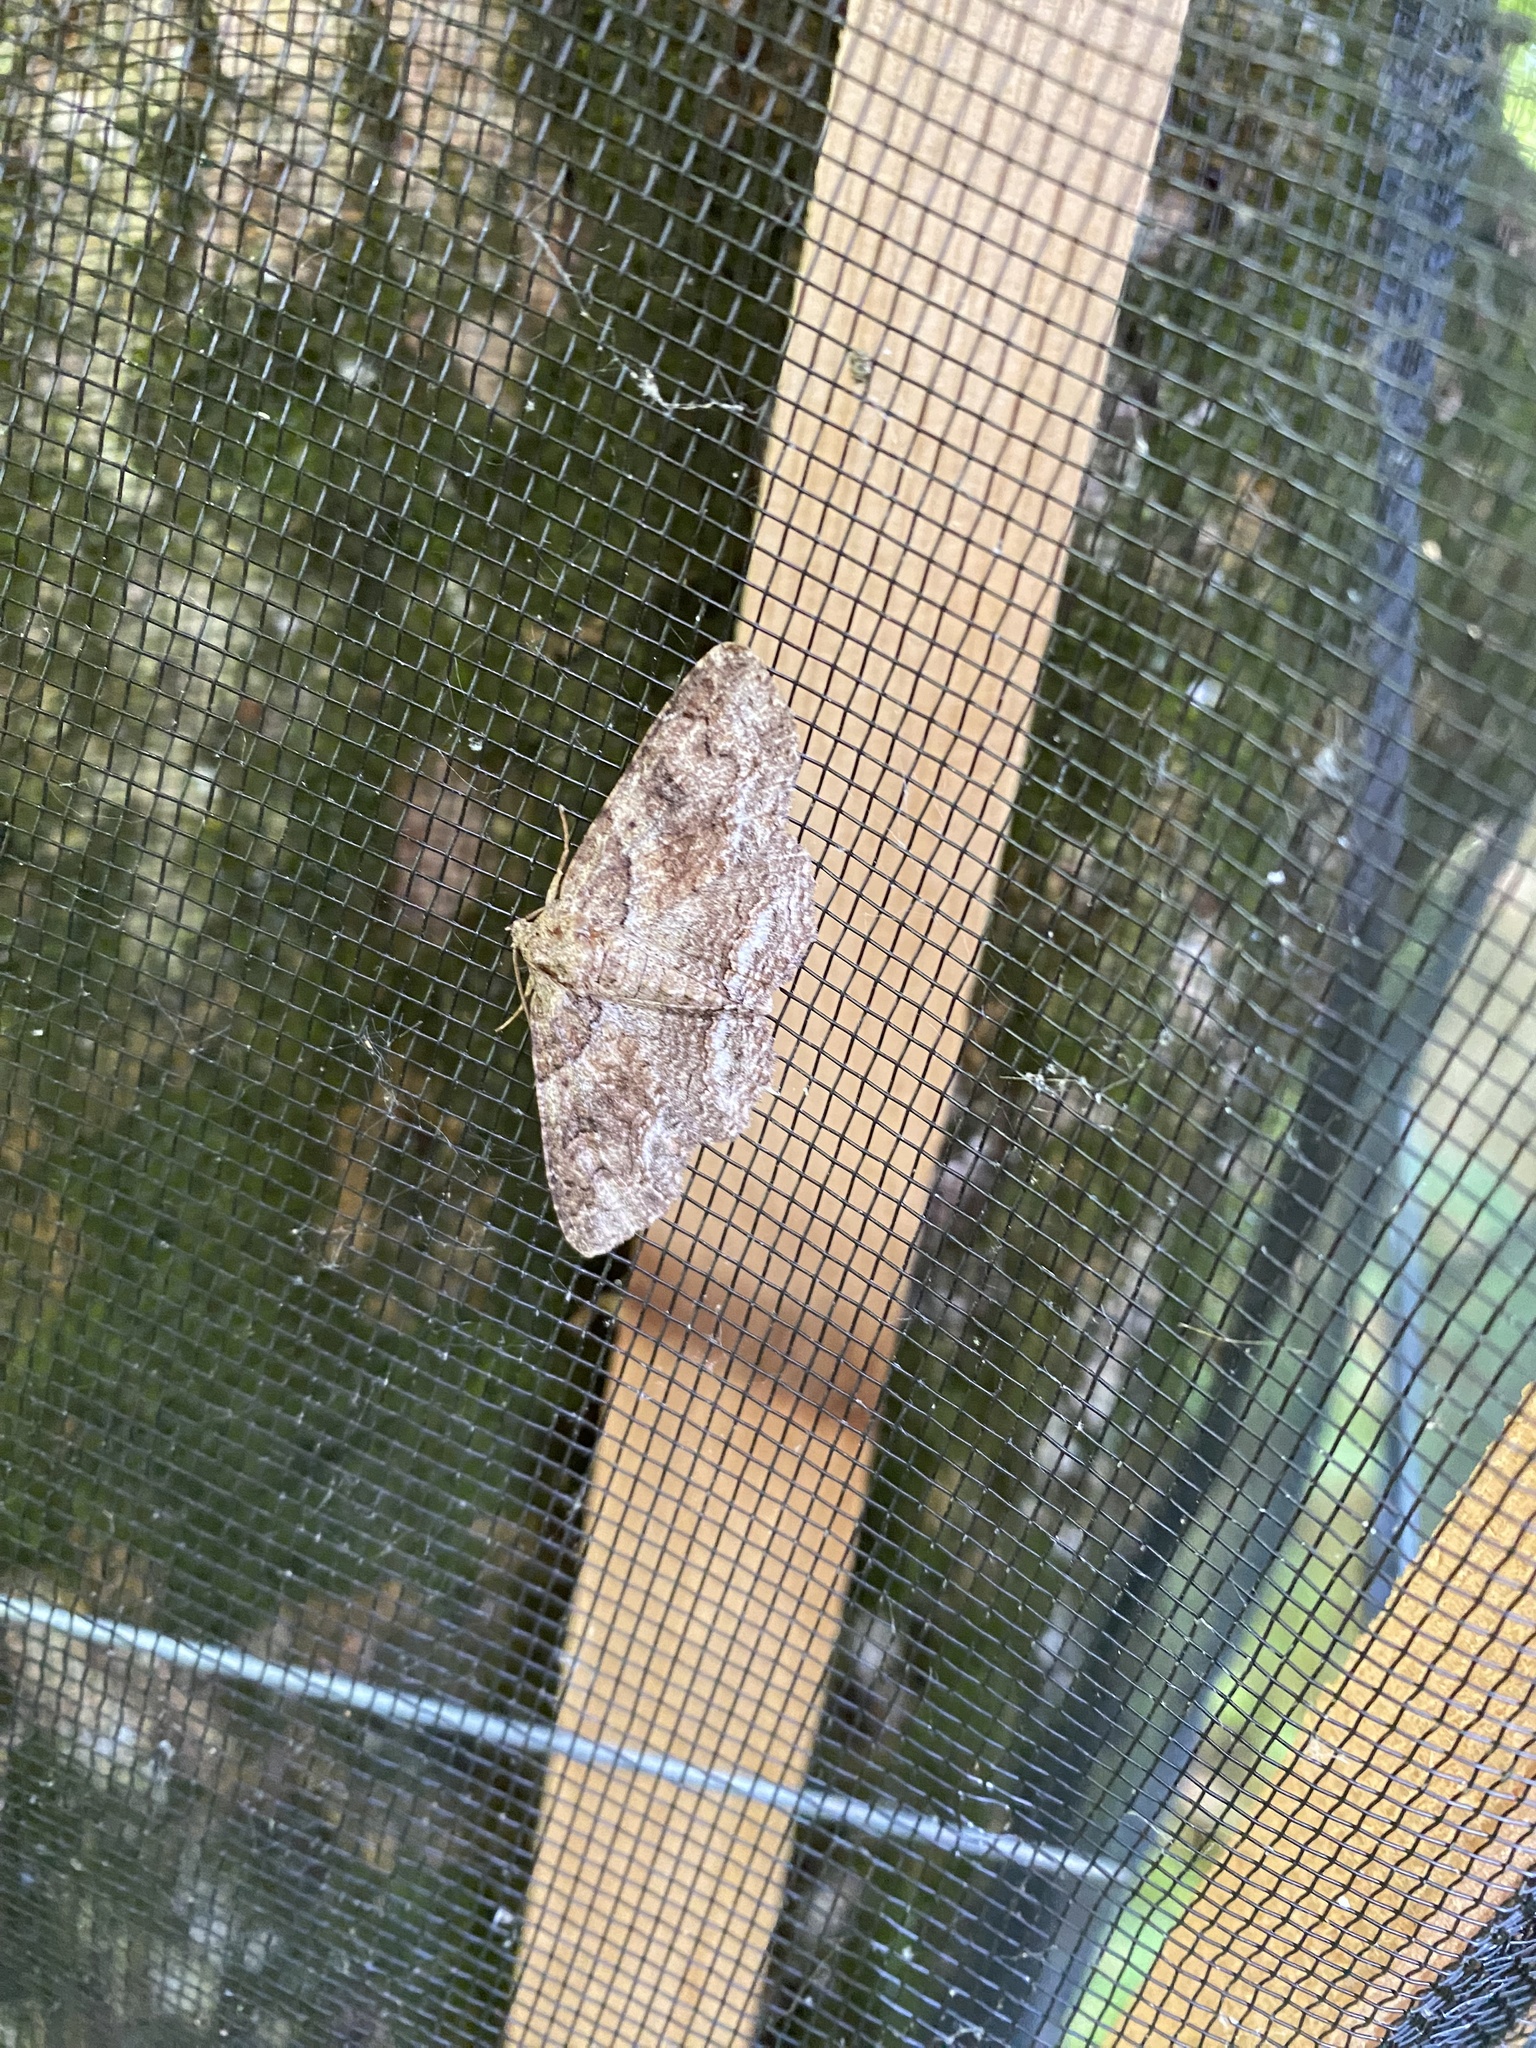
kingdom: Animalia
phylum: Arthropoda
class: Insecta
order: Lepidoptera
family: Erebidae
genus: Zale
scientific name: Zale galbanata
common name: Maple zale
